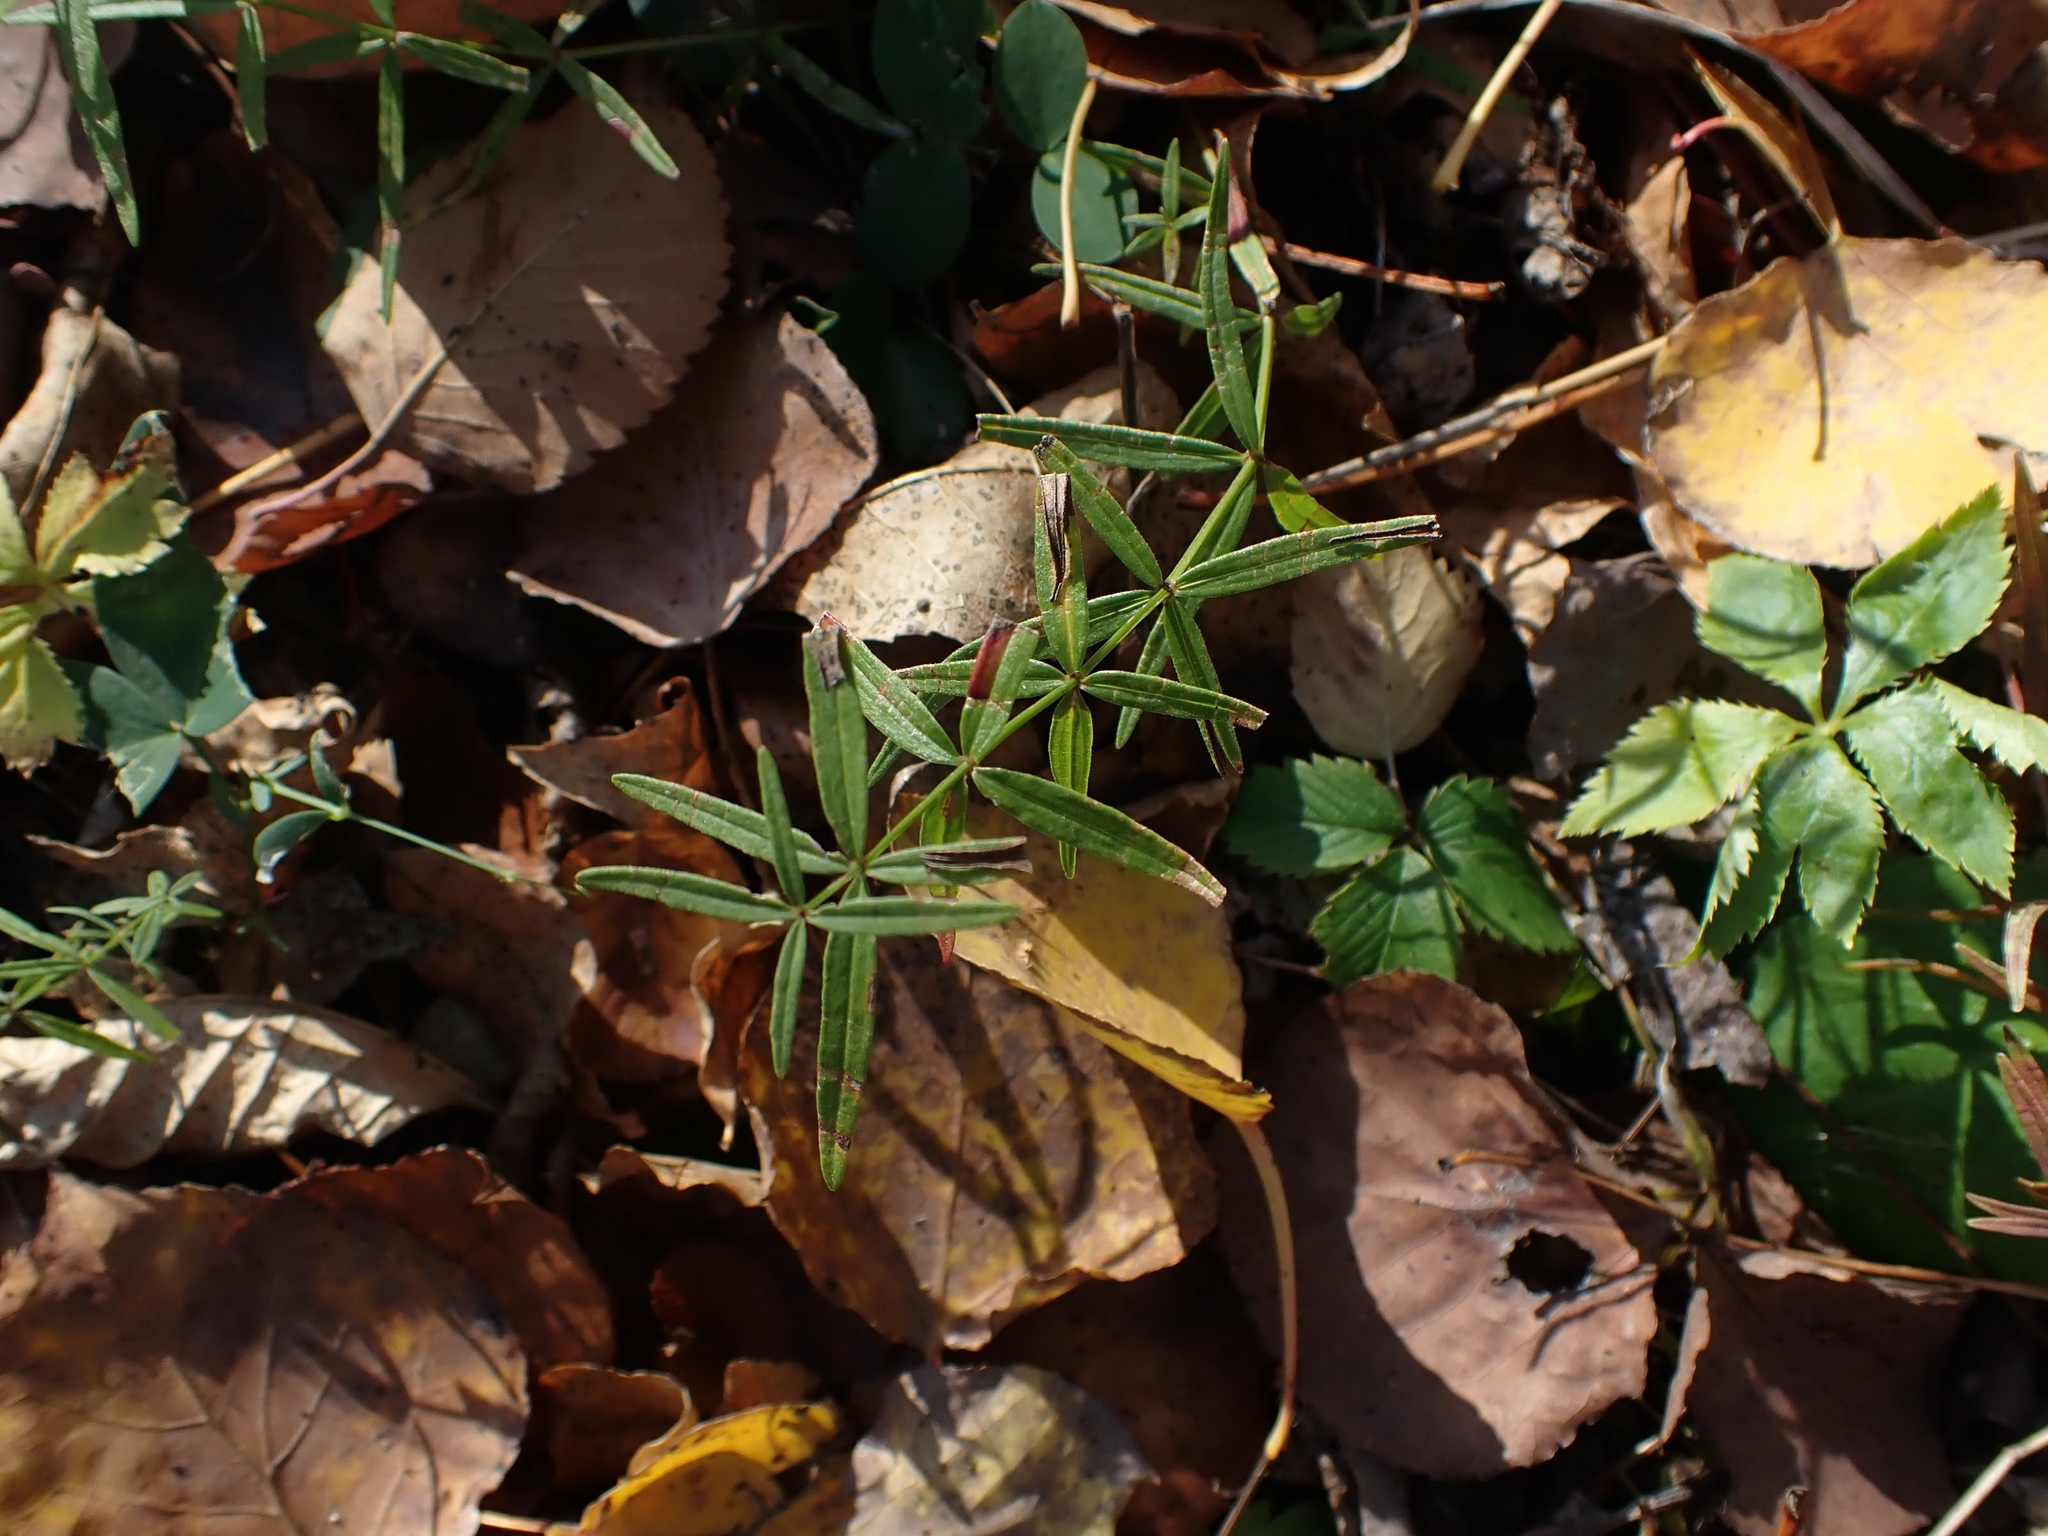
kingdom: Plantae
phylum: Tracheophyta
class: Magnoliopsida
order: Gentianales
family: Rubiaceae
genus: Galium
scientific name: Galium boreale
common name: Northern bedstraw
